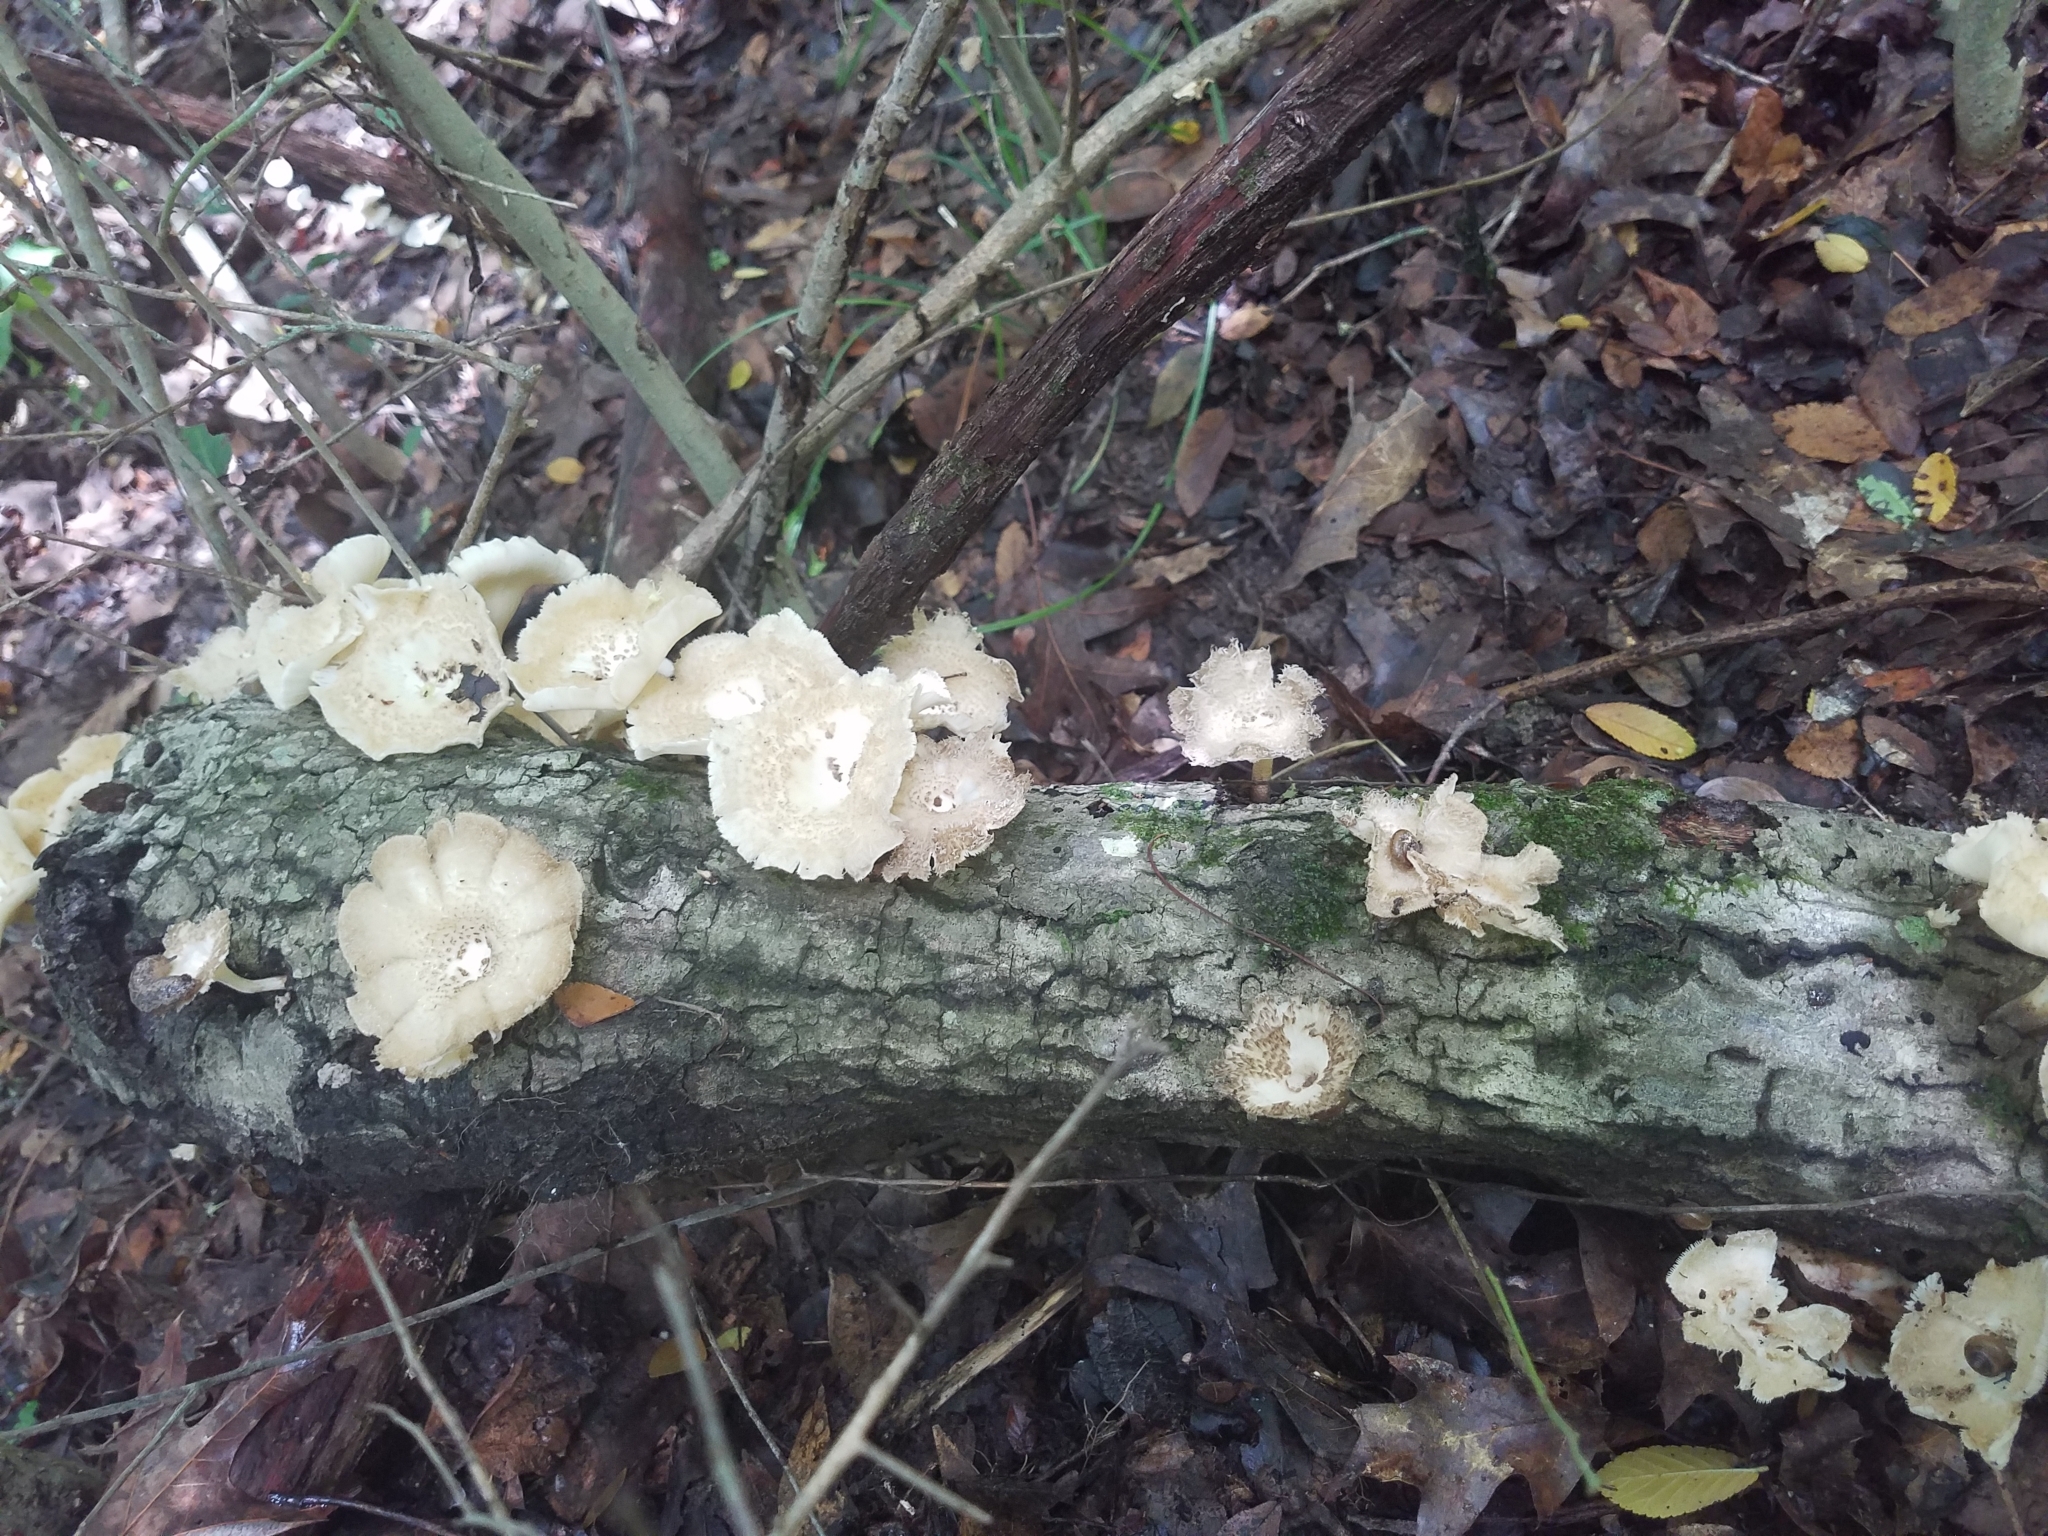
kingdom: Fungi
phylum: Basidiomycota
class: Agaricomycetes
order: Polyporales
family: Polyporaceae
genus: Lentinus
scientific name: Lentinus arcularius
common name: Spring polypore
